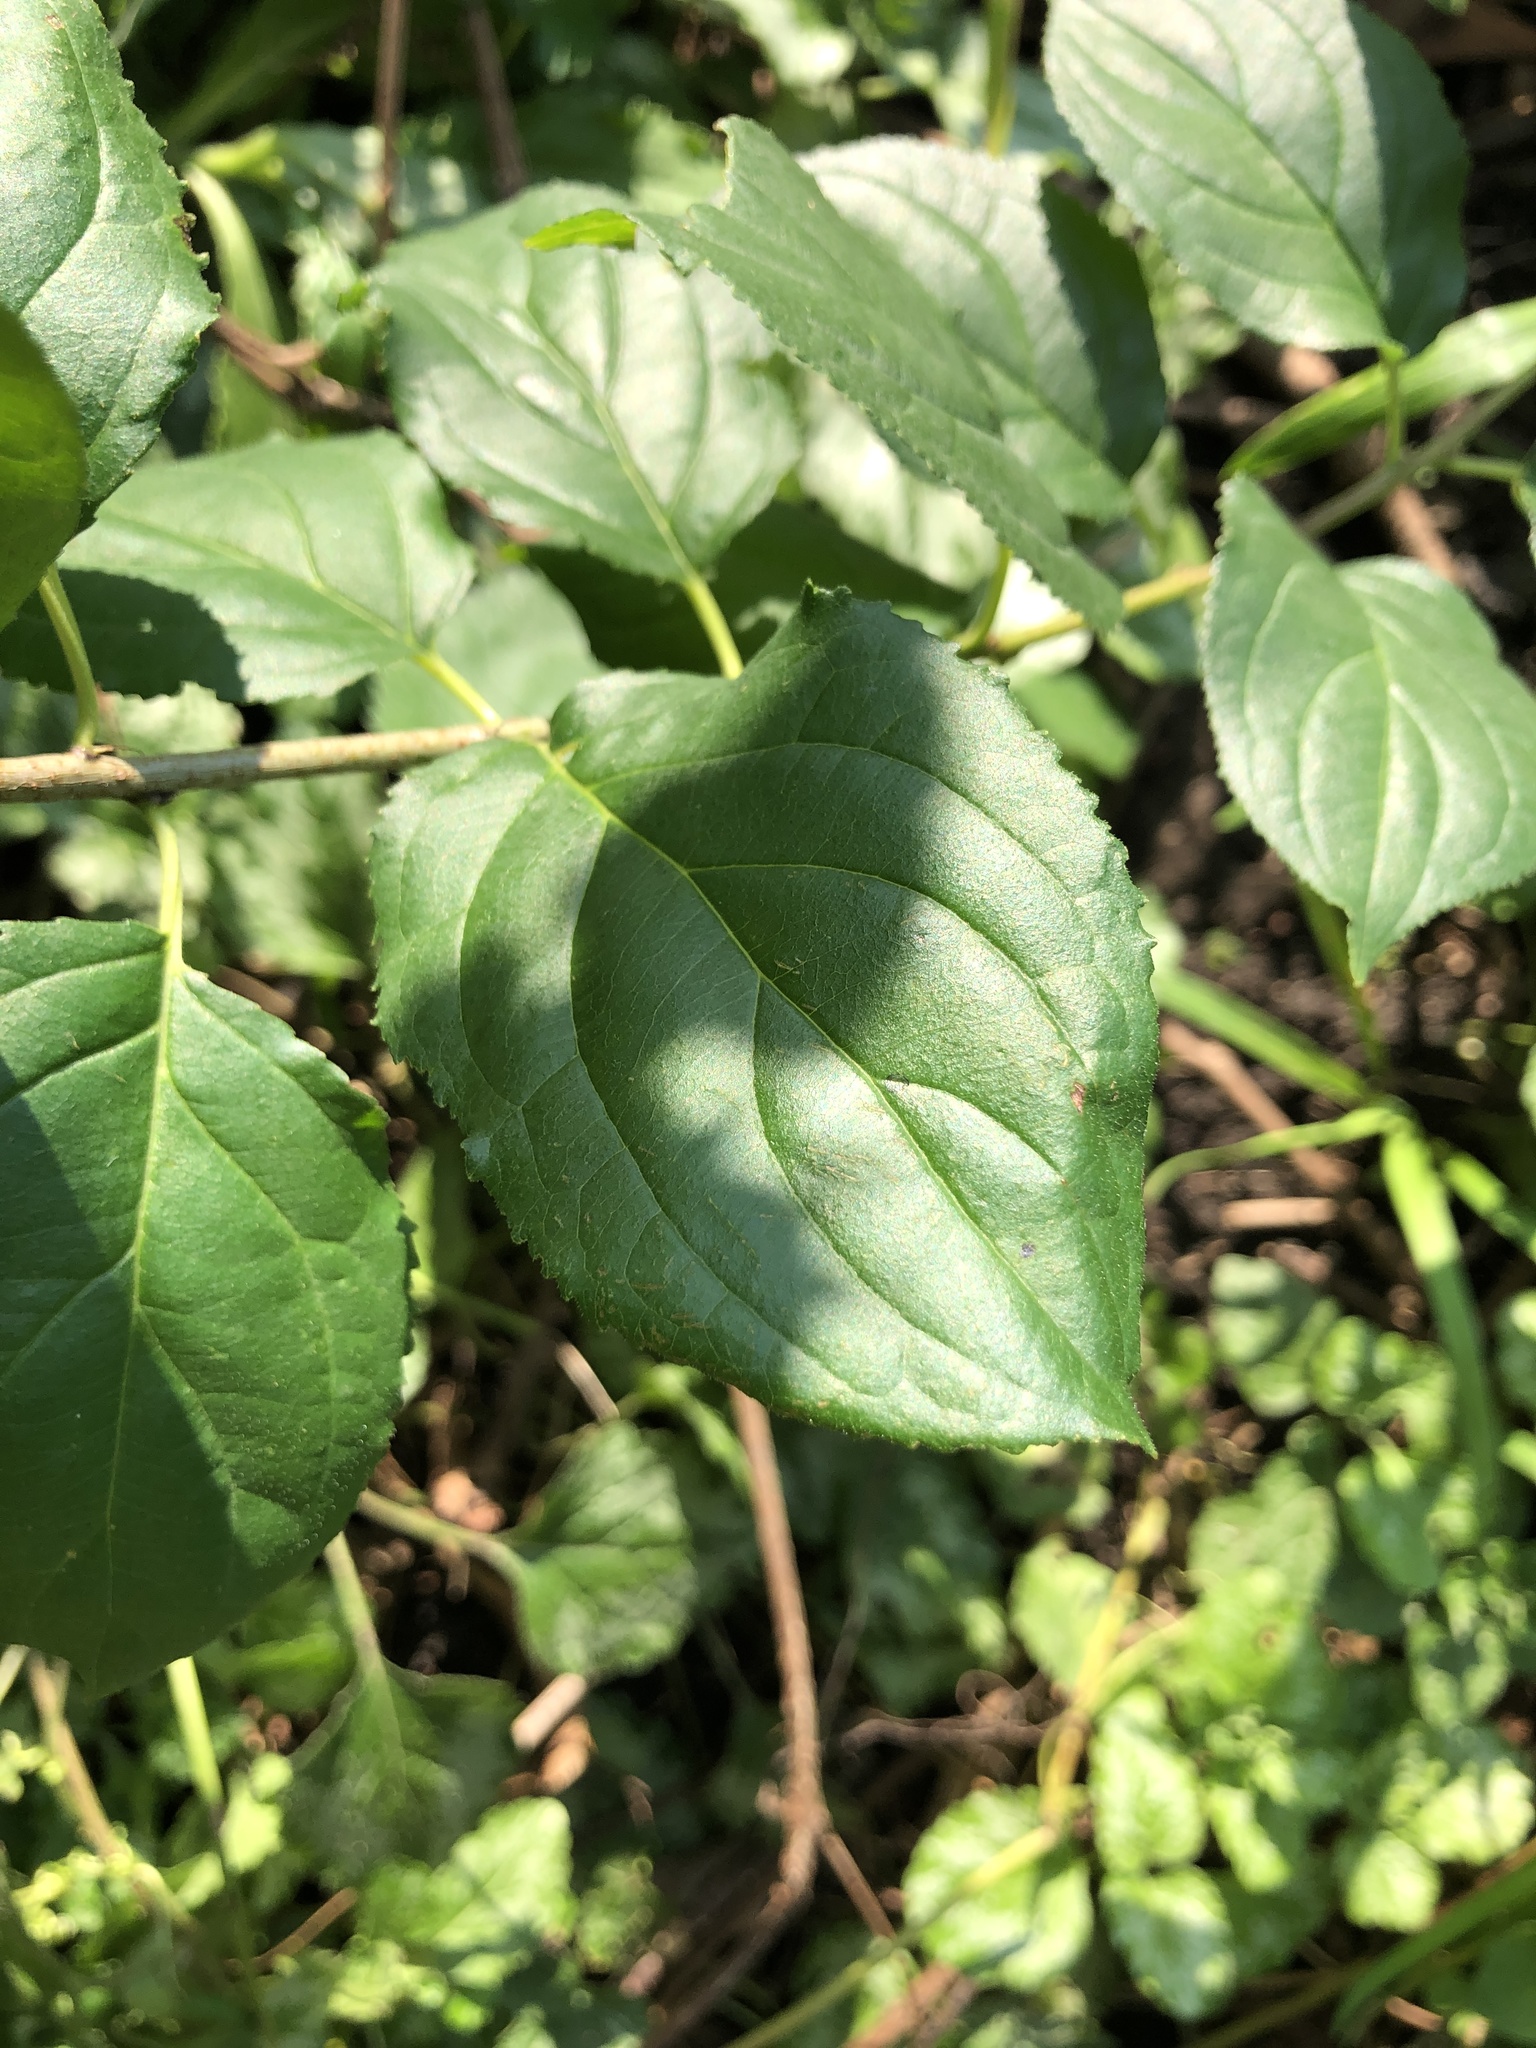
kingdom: Plantae
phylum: Tracheophyta
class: Magnoliopsida
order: Rosales
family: Rhamnaceae
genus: Rhamnus
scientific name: Rhamnus cathartica
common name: Common buckthorn
